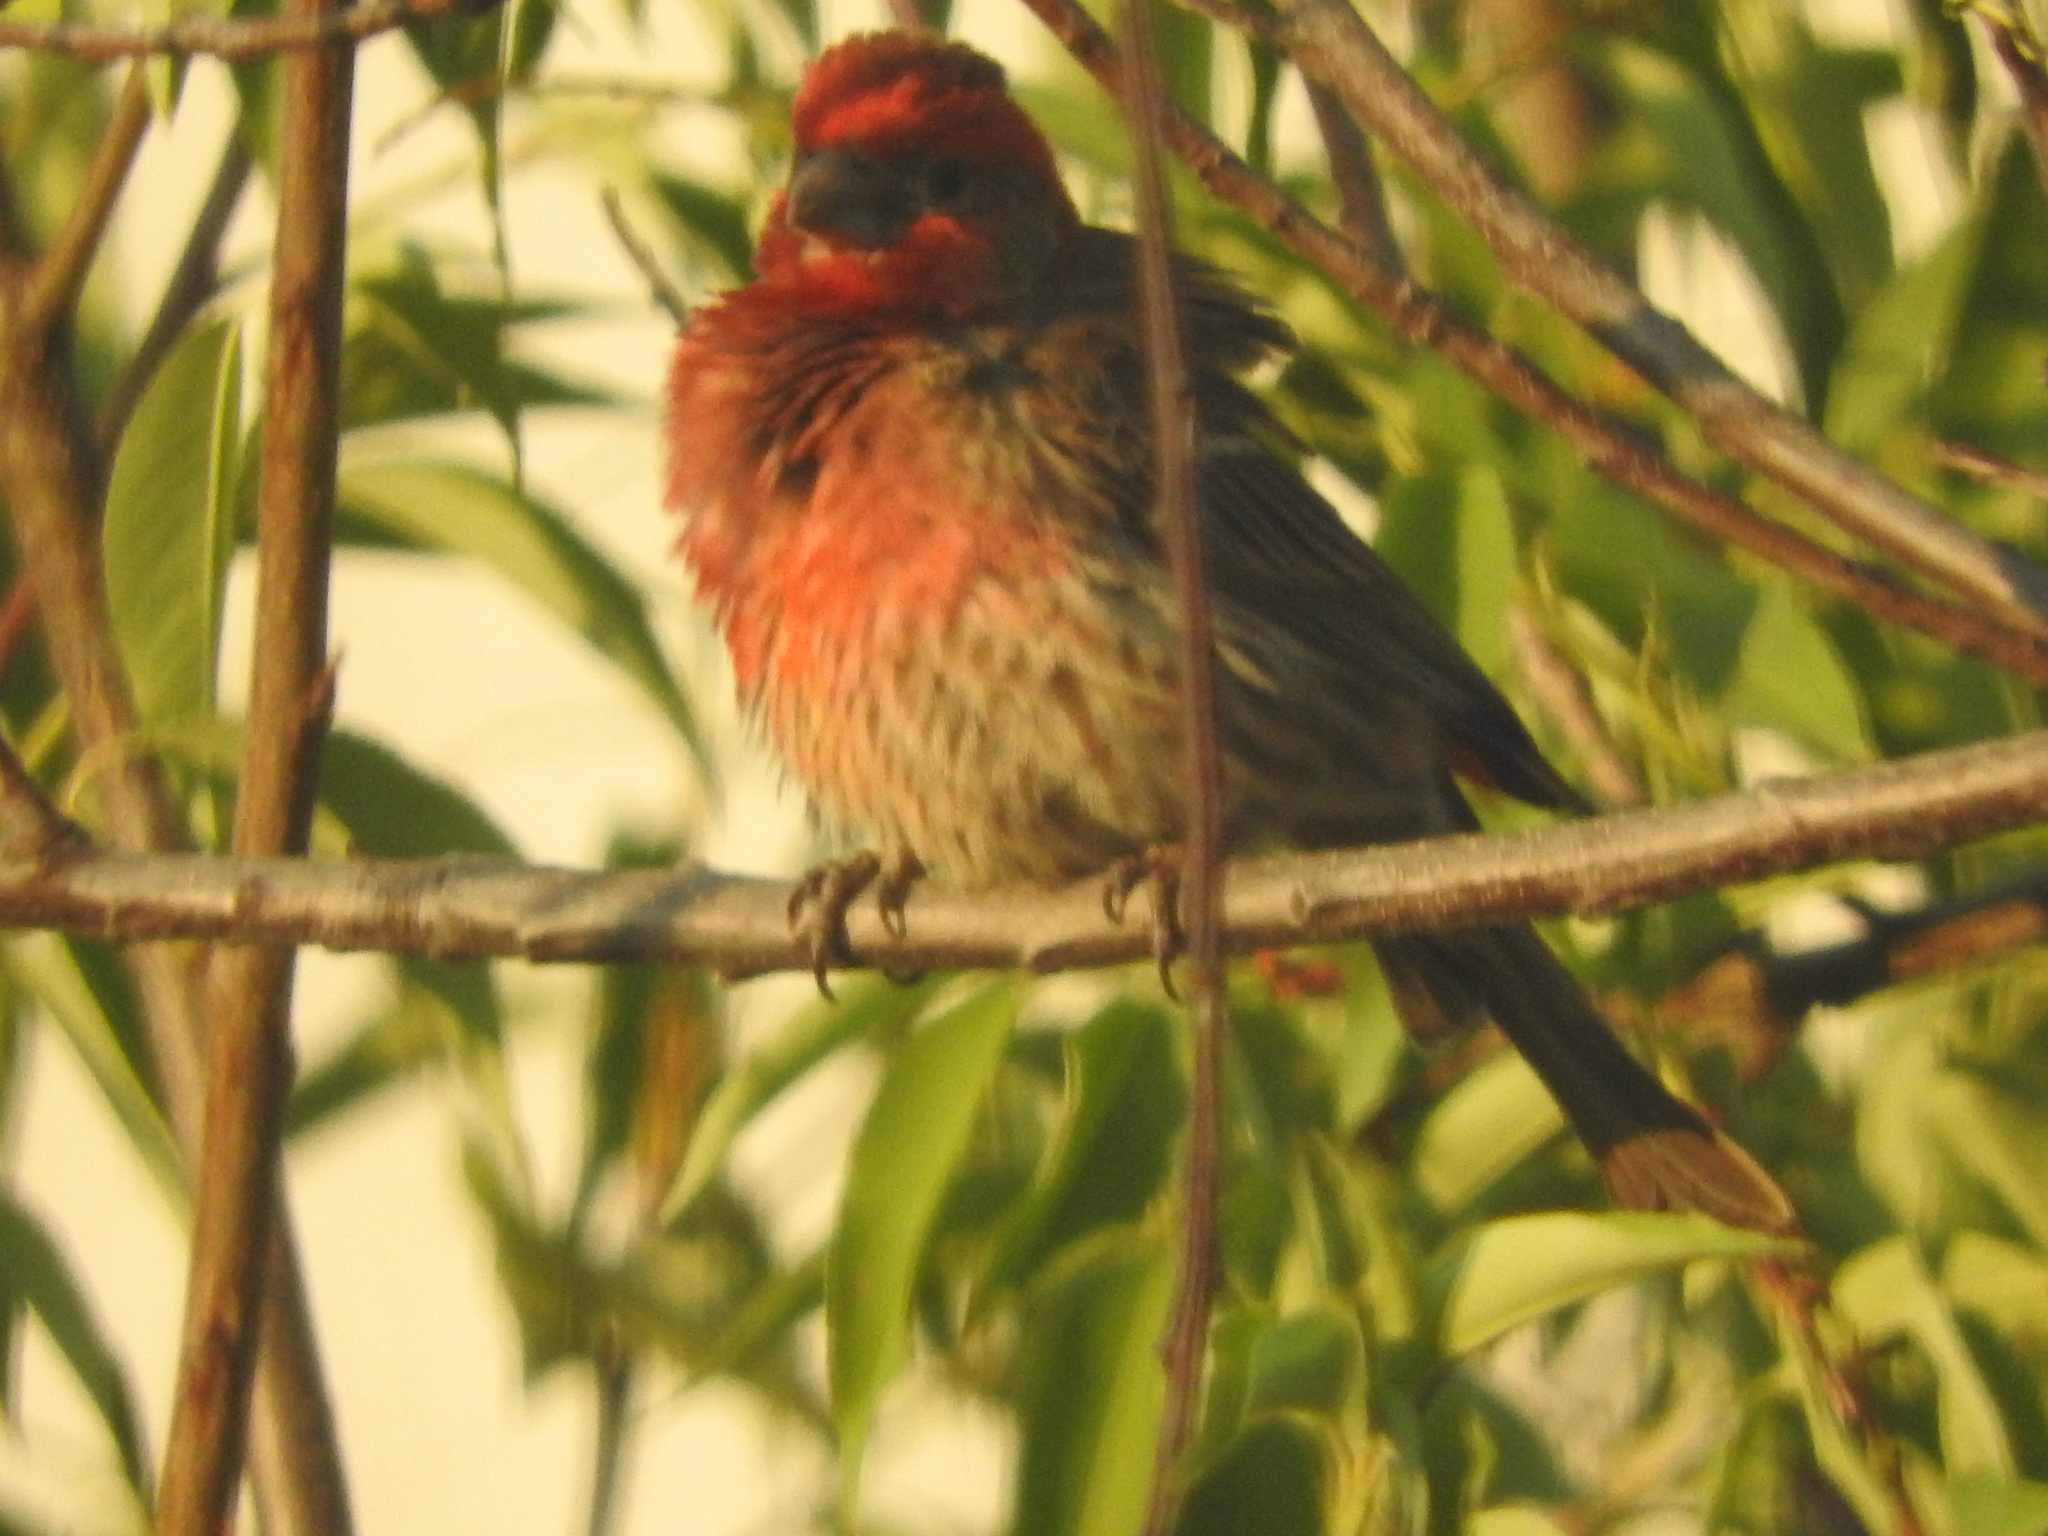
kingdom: Animalia
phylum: Chordata
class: Aves
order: Passeriformes
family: Fringillidae
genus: Haemorhous
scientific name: Haemorhous mexicanus
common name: House finch
